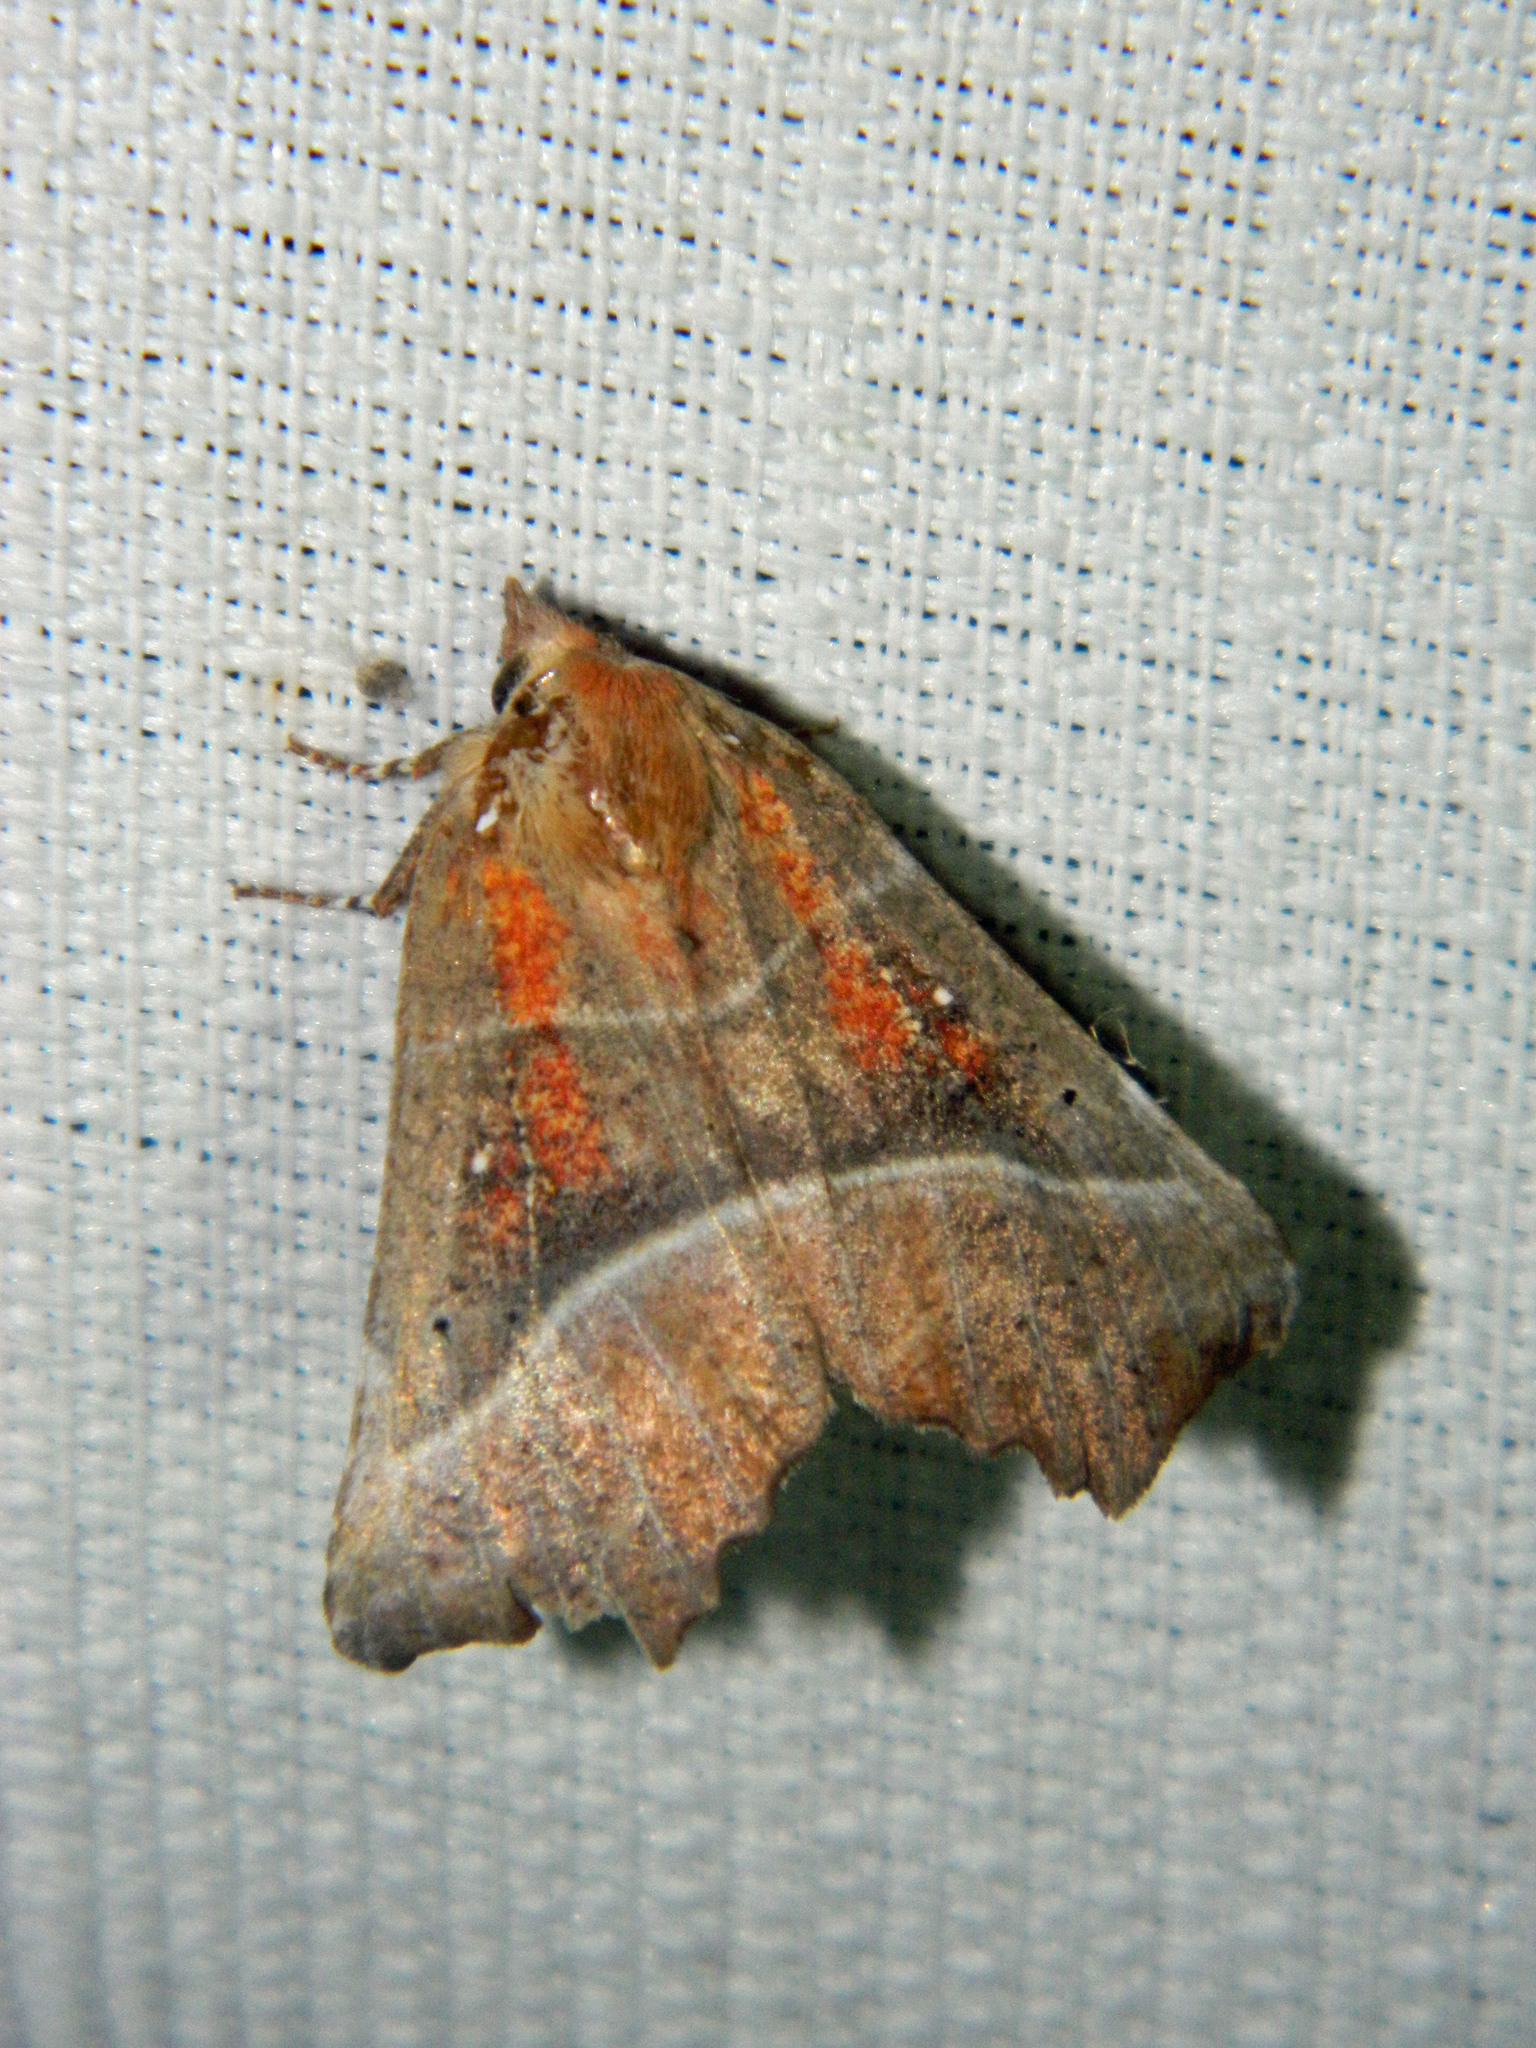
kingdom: Animalia
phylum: Arthropoda
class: Insecta
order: Lepidoptera
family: Erebidae
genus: Scoliopteryx
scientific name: Scoliopteryx libatrix
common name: Herald
